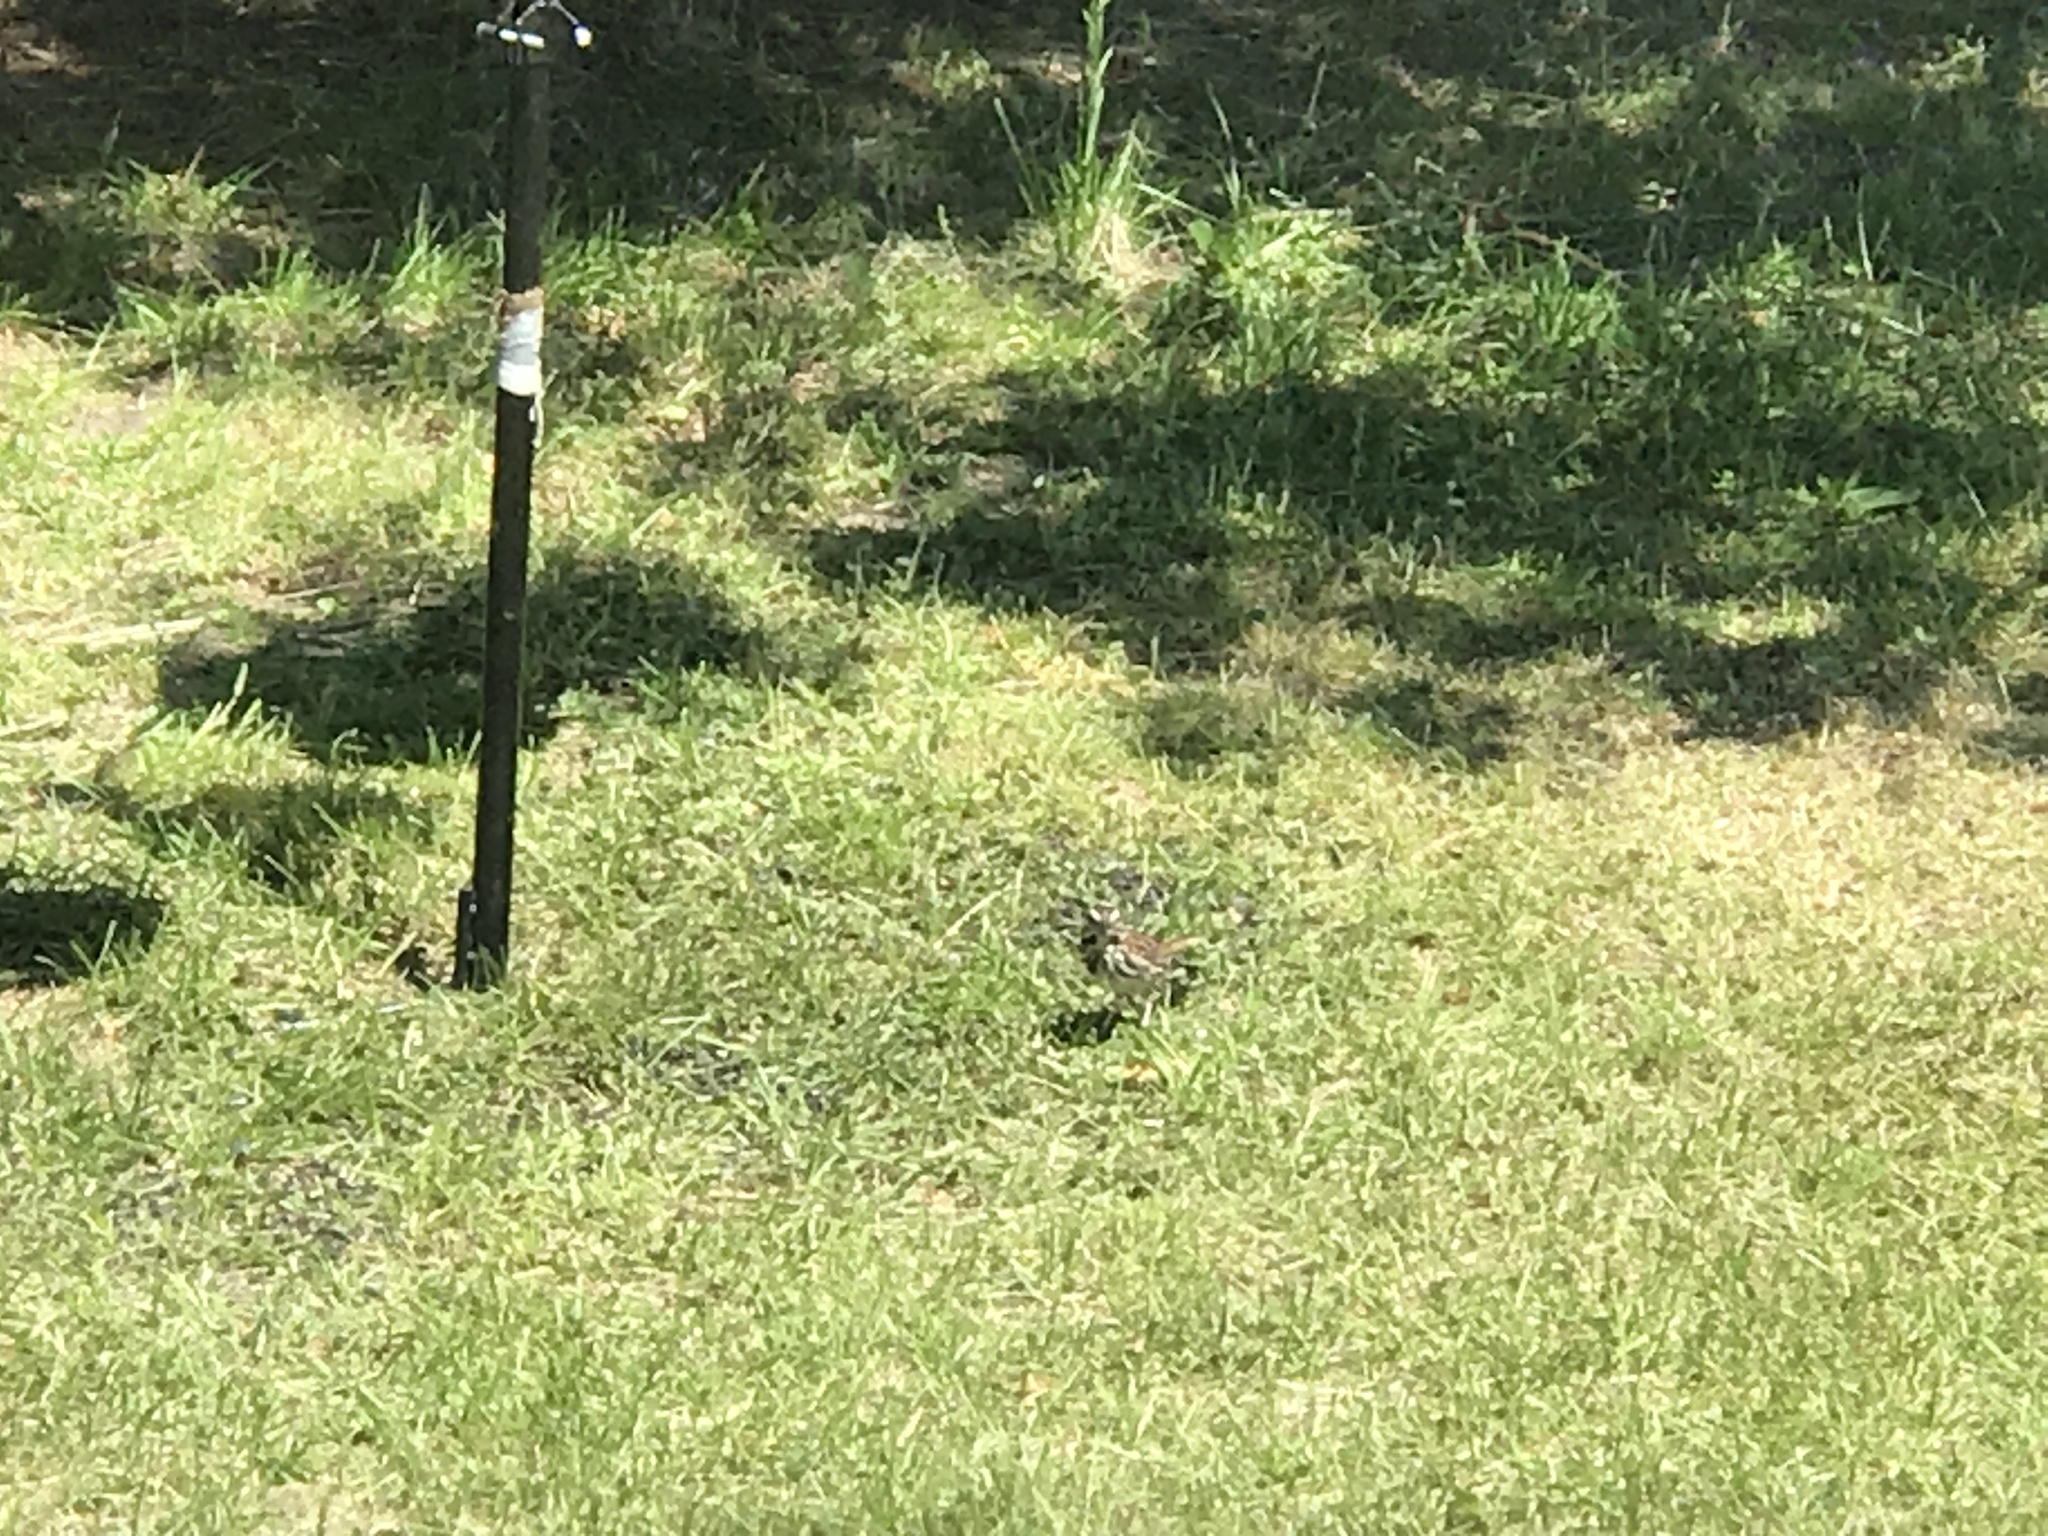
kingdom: Animalia
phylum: Chordata
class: Aves
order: Passeriformes
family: Passerellidae
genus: Melospiza
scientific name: Melospiza melodia
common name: Song sparrow
